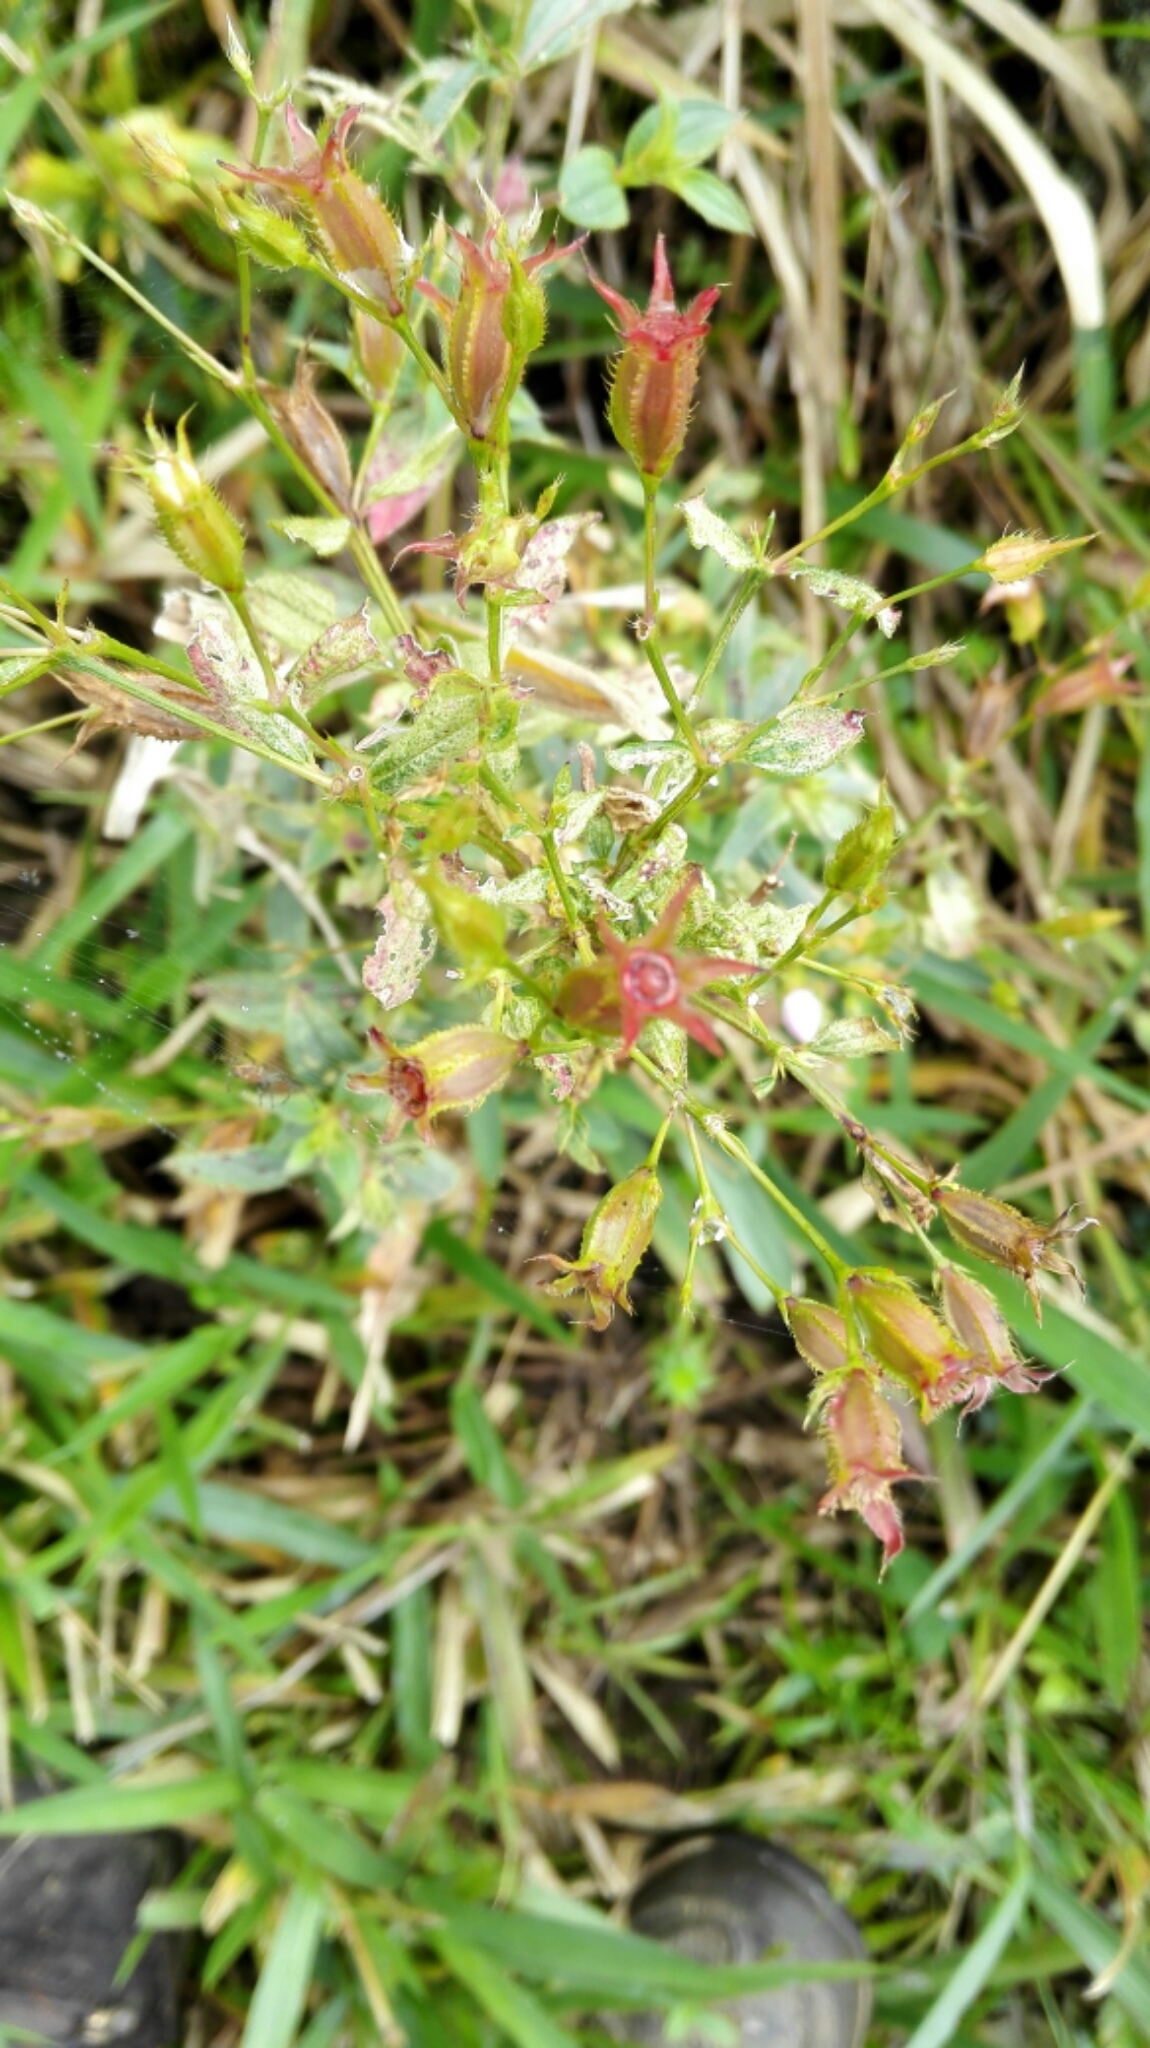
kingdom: Plantae
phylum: Tracheophyta
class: Magnoliopsida
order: Myrtales
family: Melastomataceae
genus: Pterogastra
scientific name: Pterogastra divaricata
